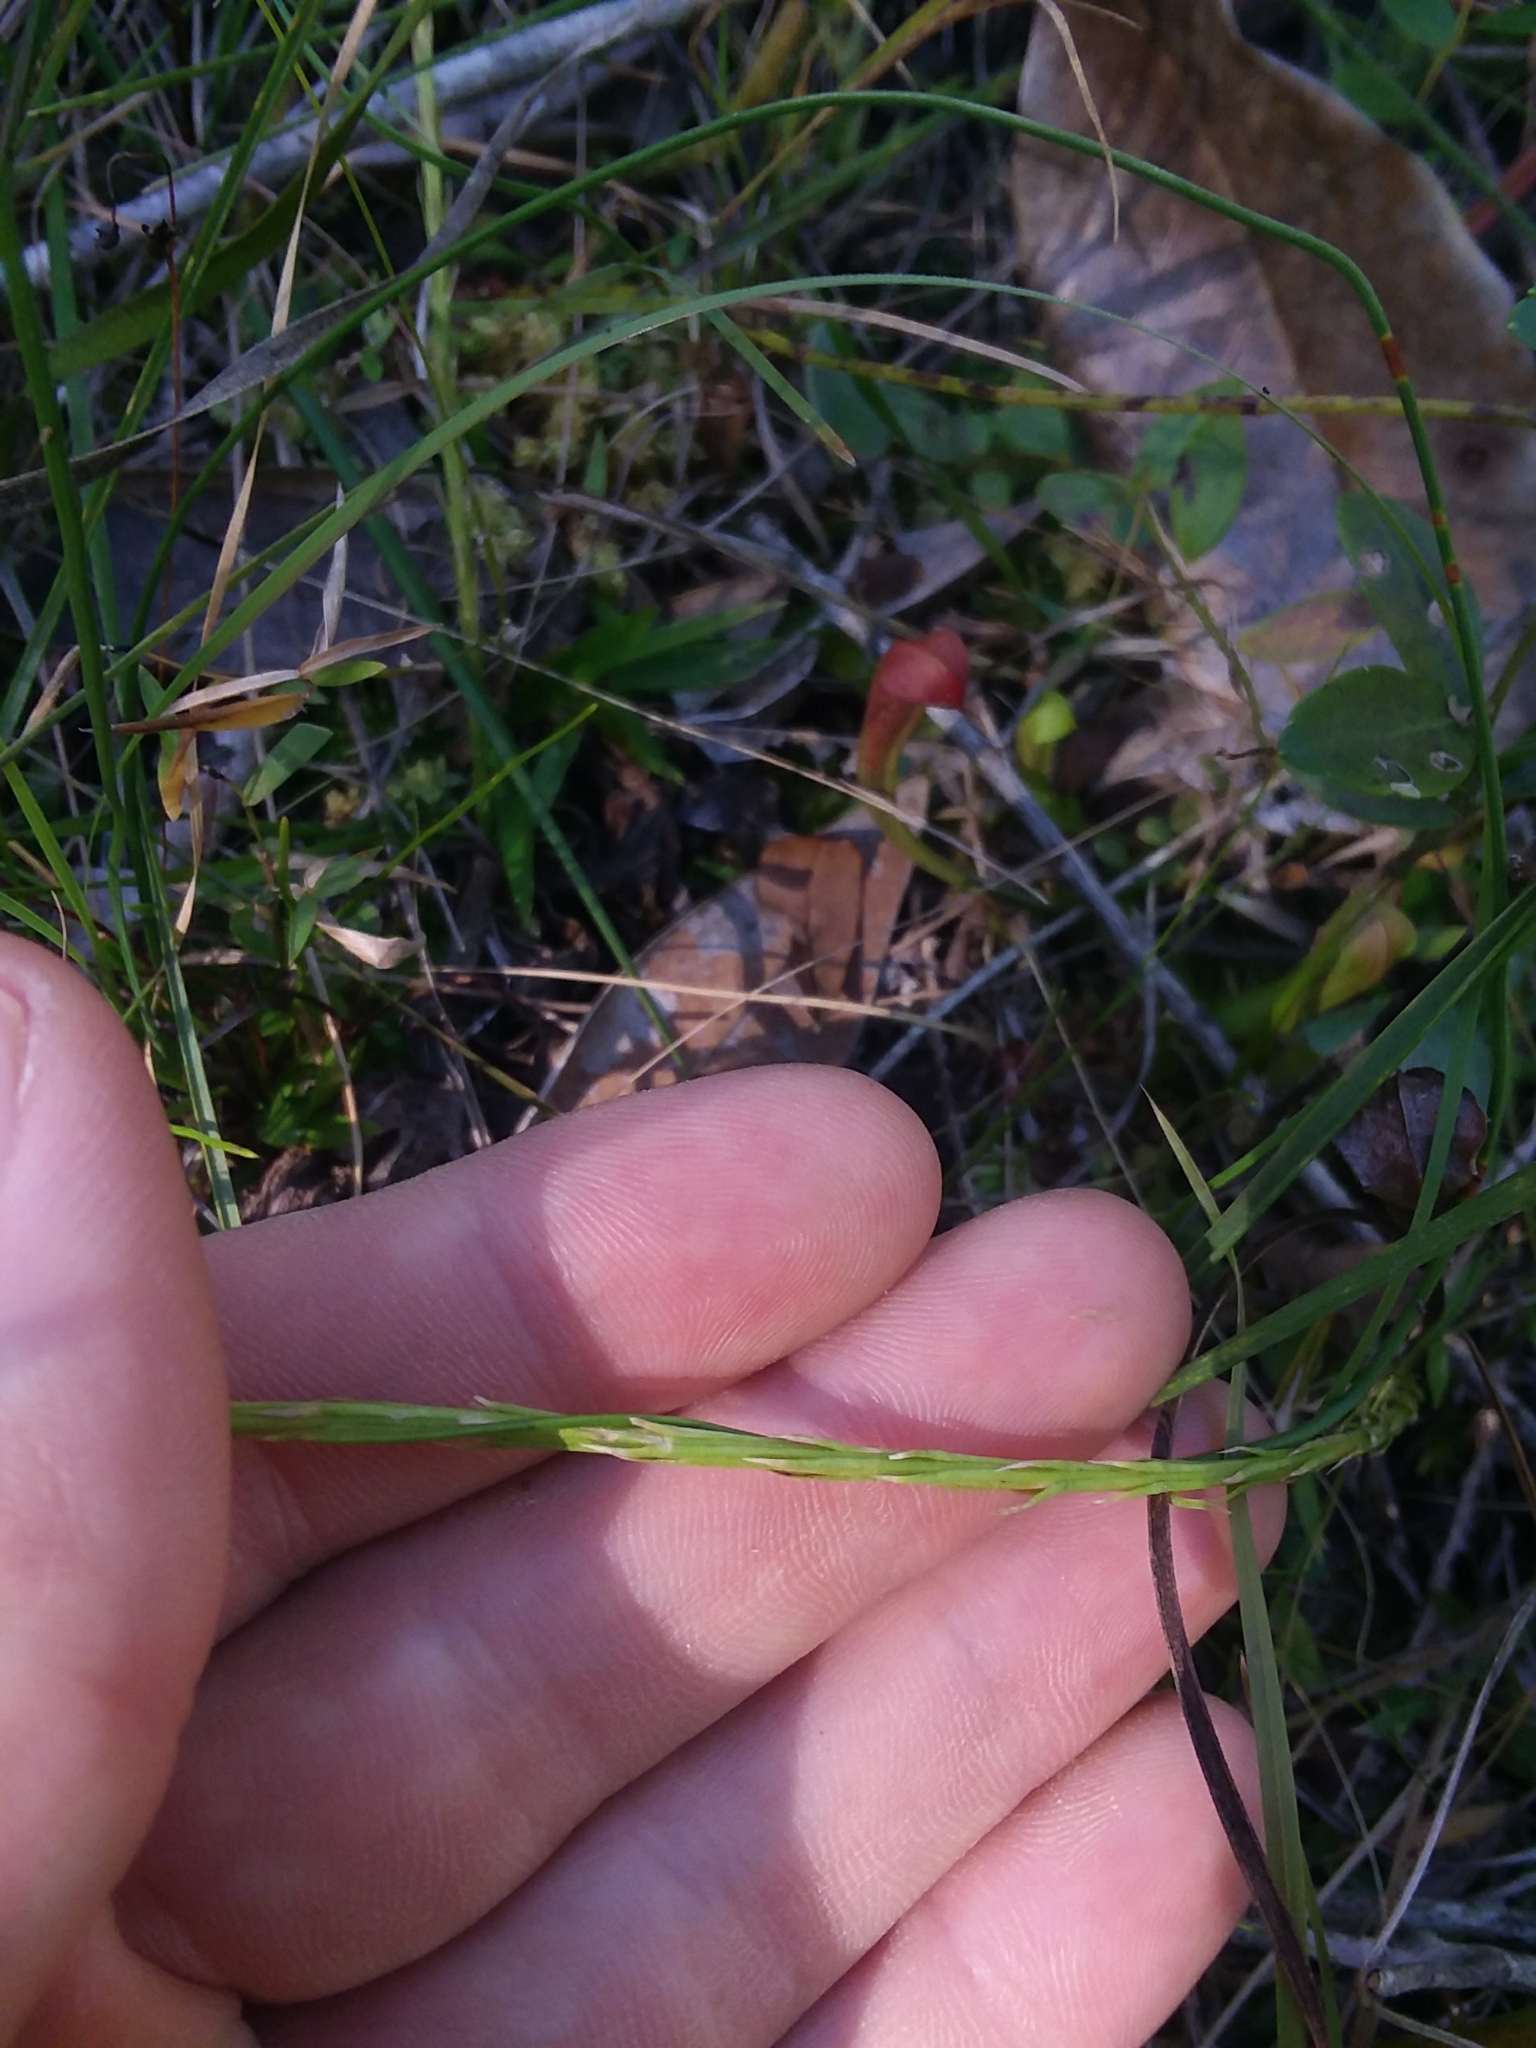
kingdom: Plantae
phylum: Tracheophyta
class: Lycopodiopsida
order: Lycopodiales
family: Lycopodiaceae
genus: Pseudolycopodiella
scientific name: Pseudolycopodiella caroliniana
